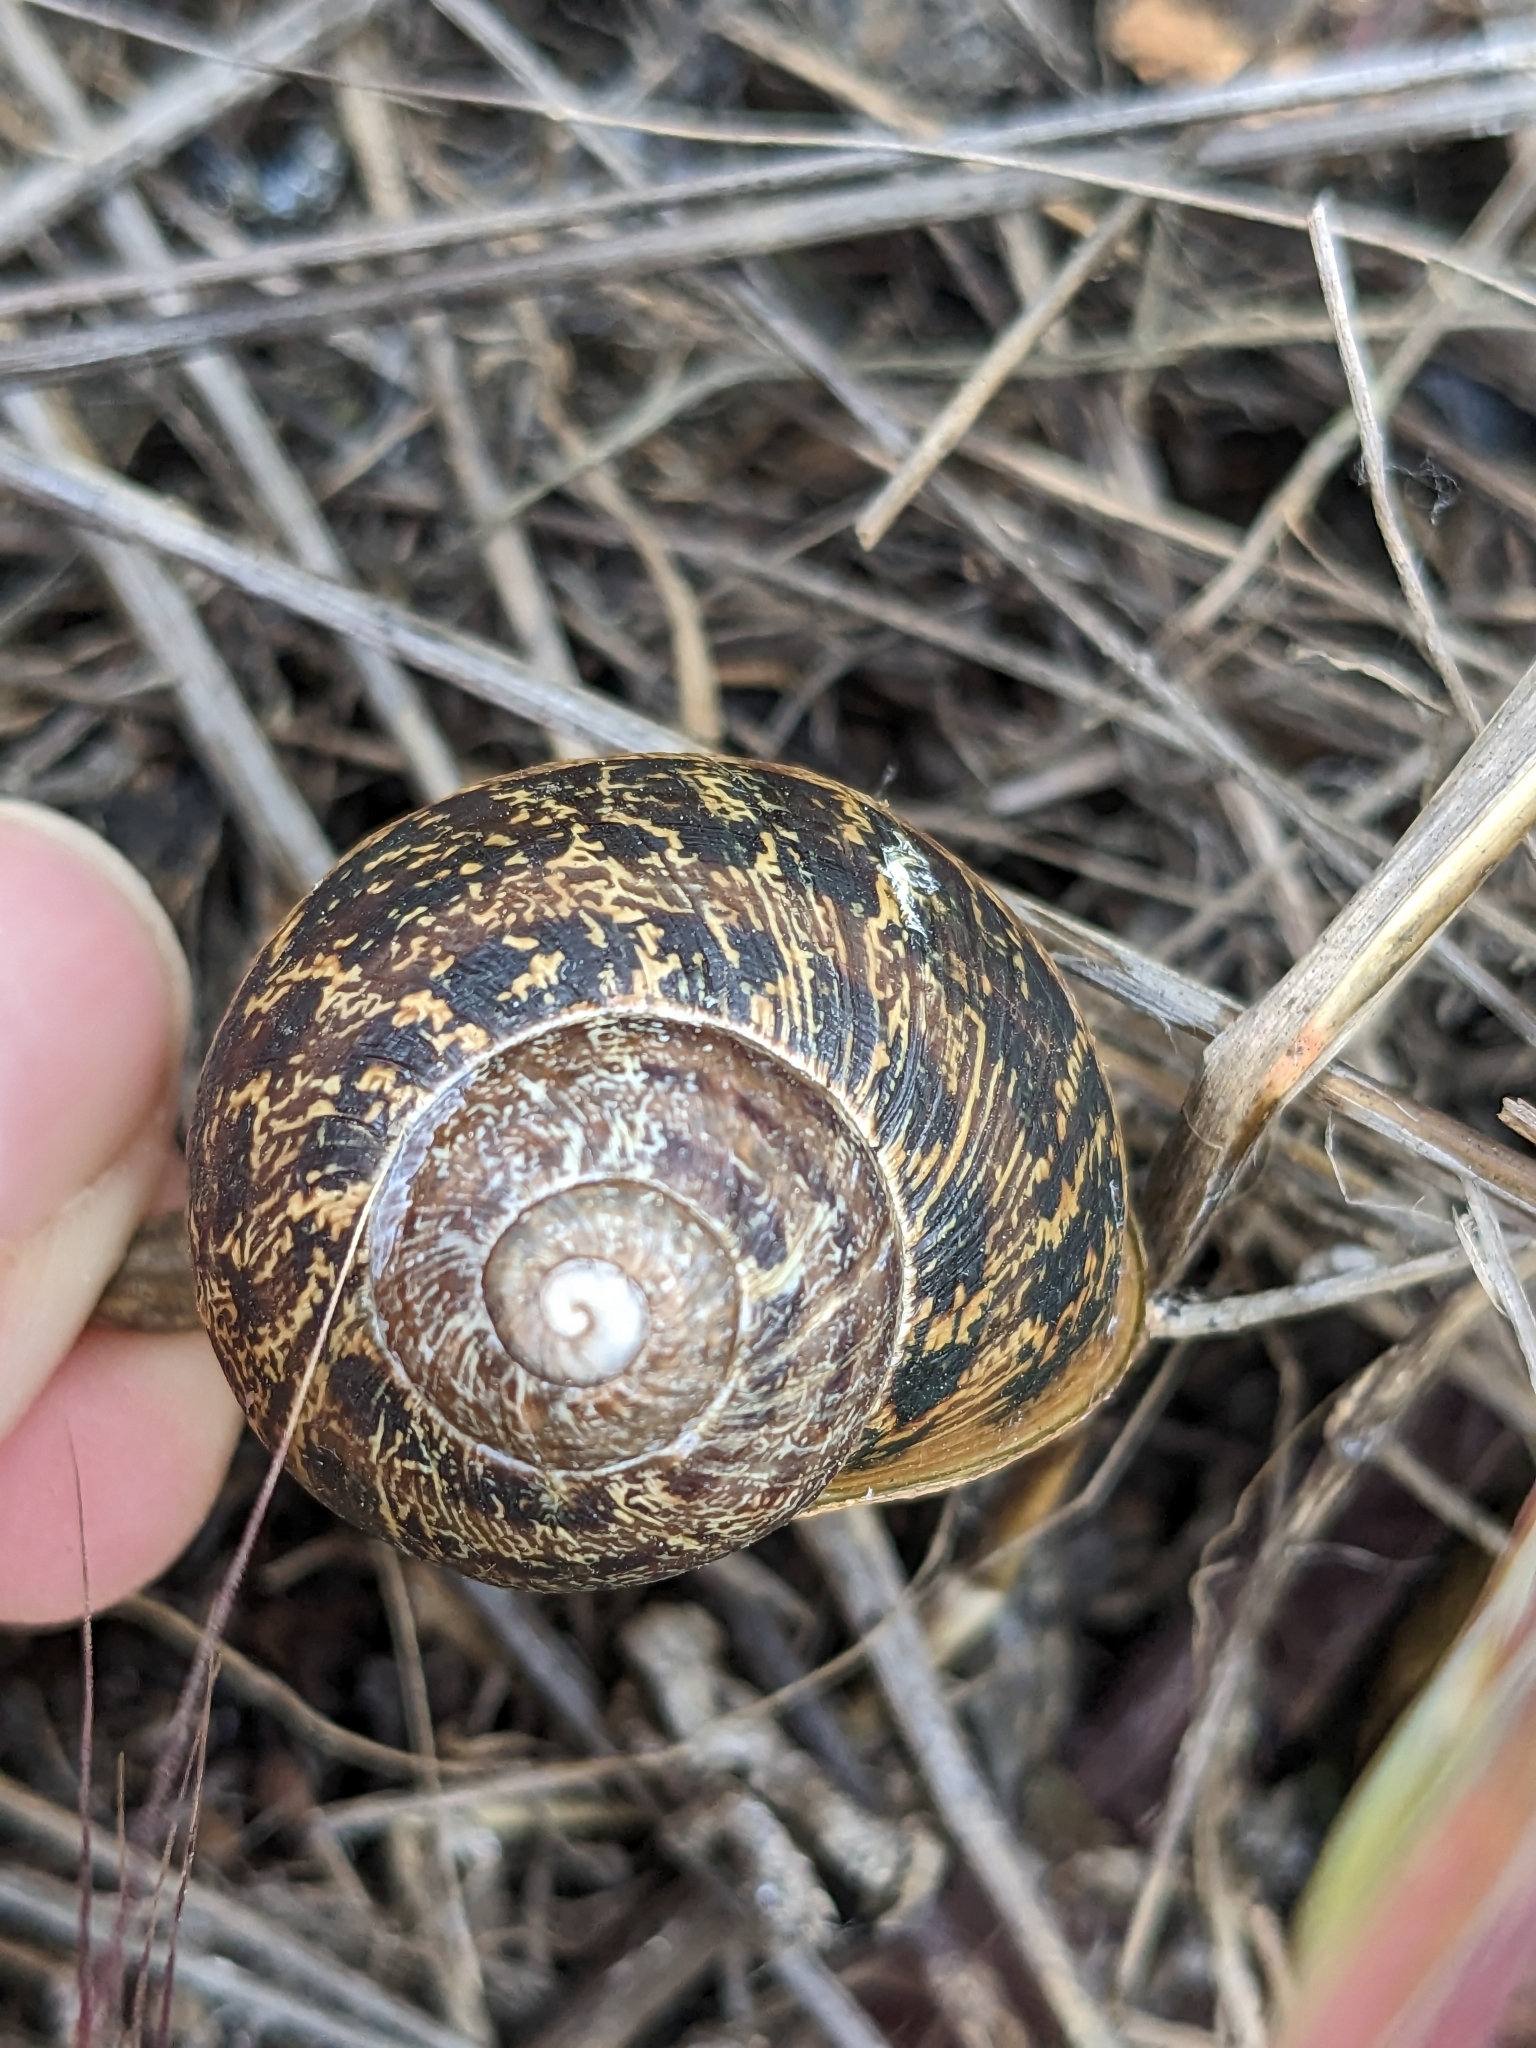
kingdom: Animalia
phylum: Mollusca
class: Gastropoda
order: Stylommatophora
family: Helicidae
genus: Cornu
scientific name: Cornu aspersum
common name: Brown garden snail
